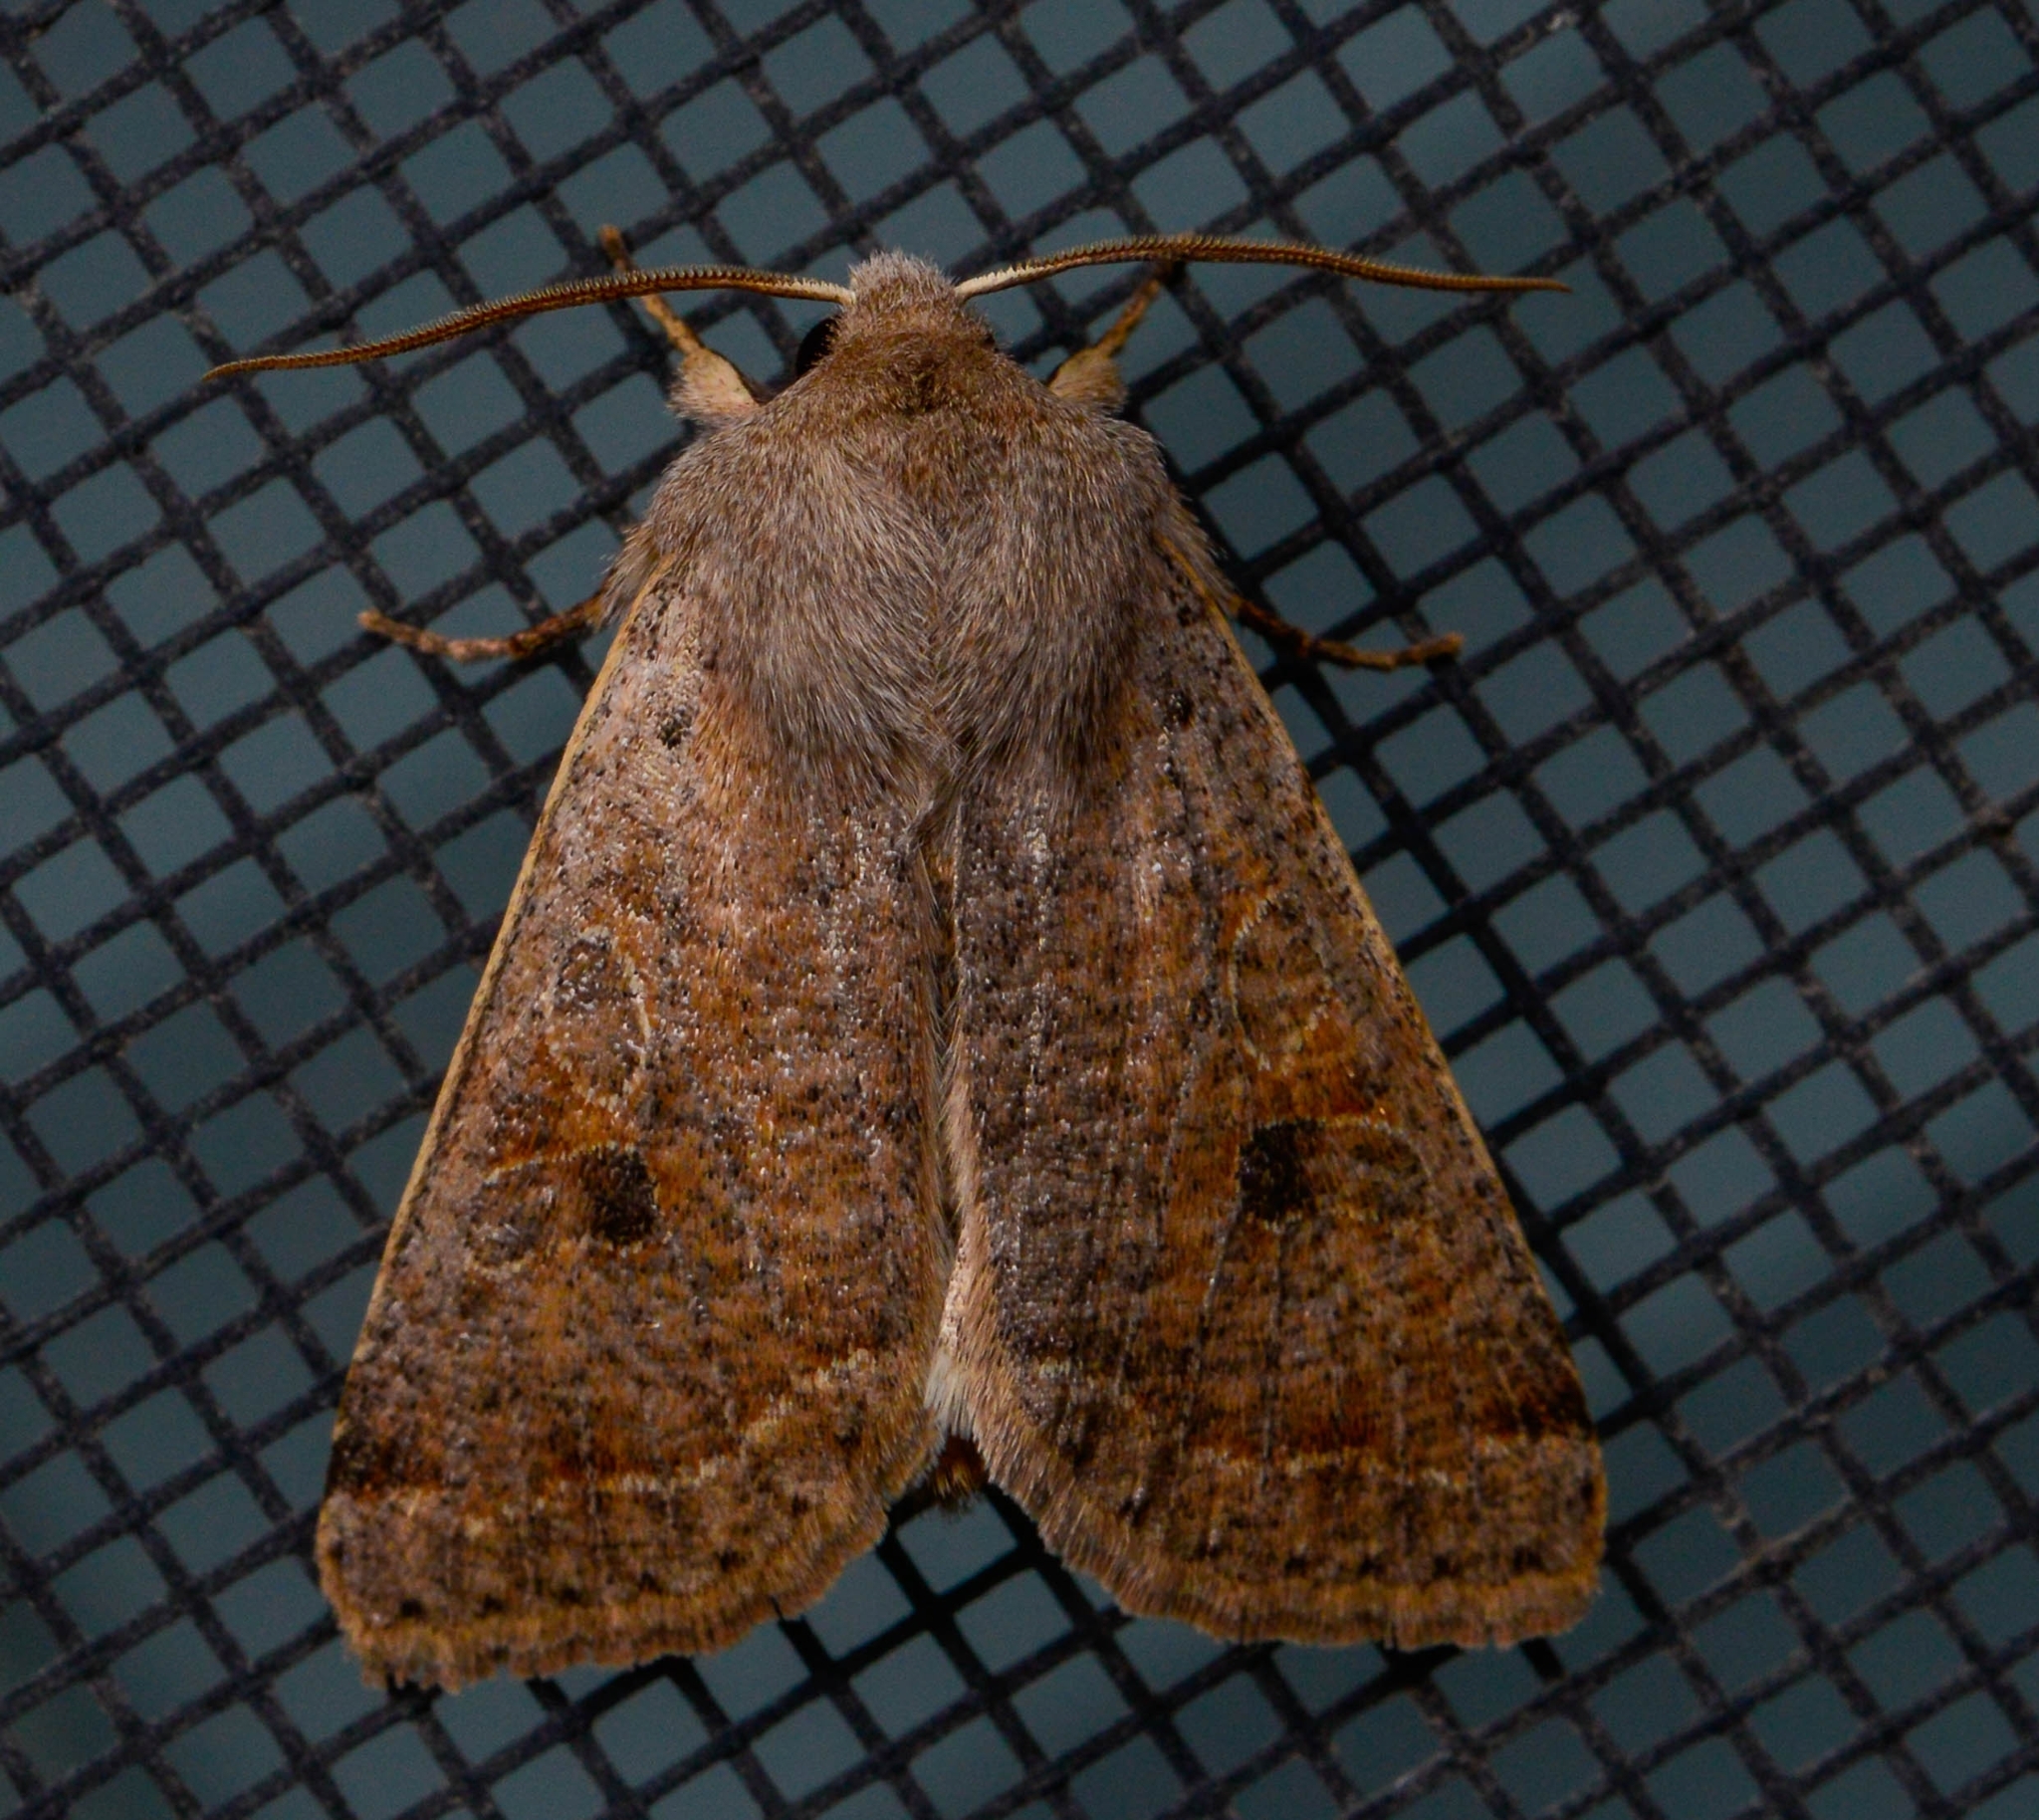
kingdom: Animalia
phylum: Arthropoda
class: Insecta
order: Lepidoptera
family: Noctuidae
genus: Orthosia
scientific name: Orthosia hibisci
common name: Green fruitworm
